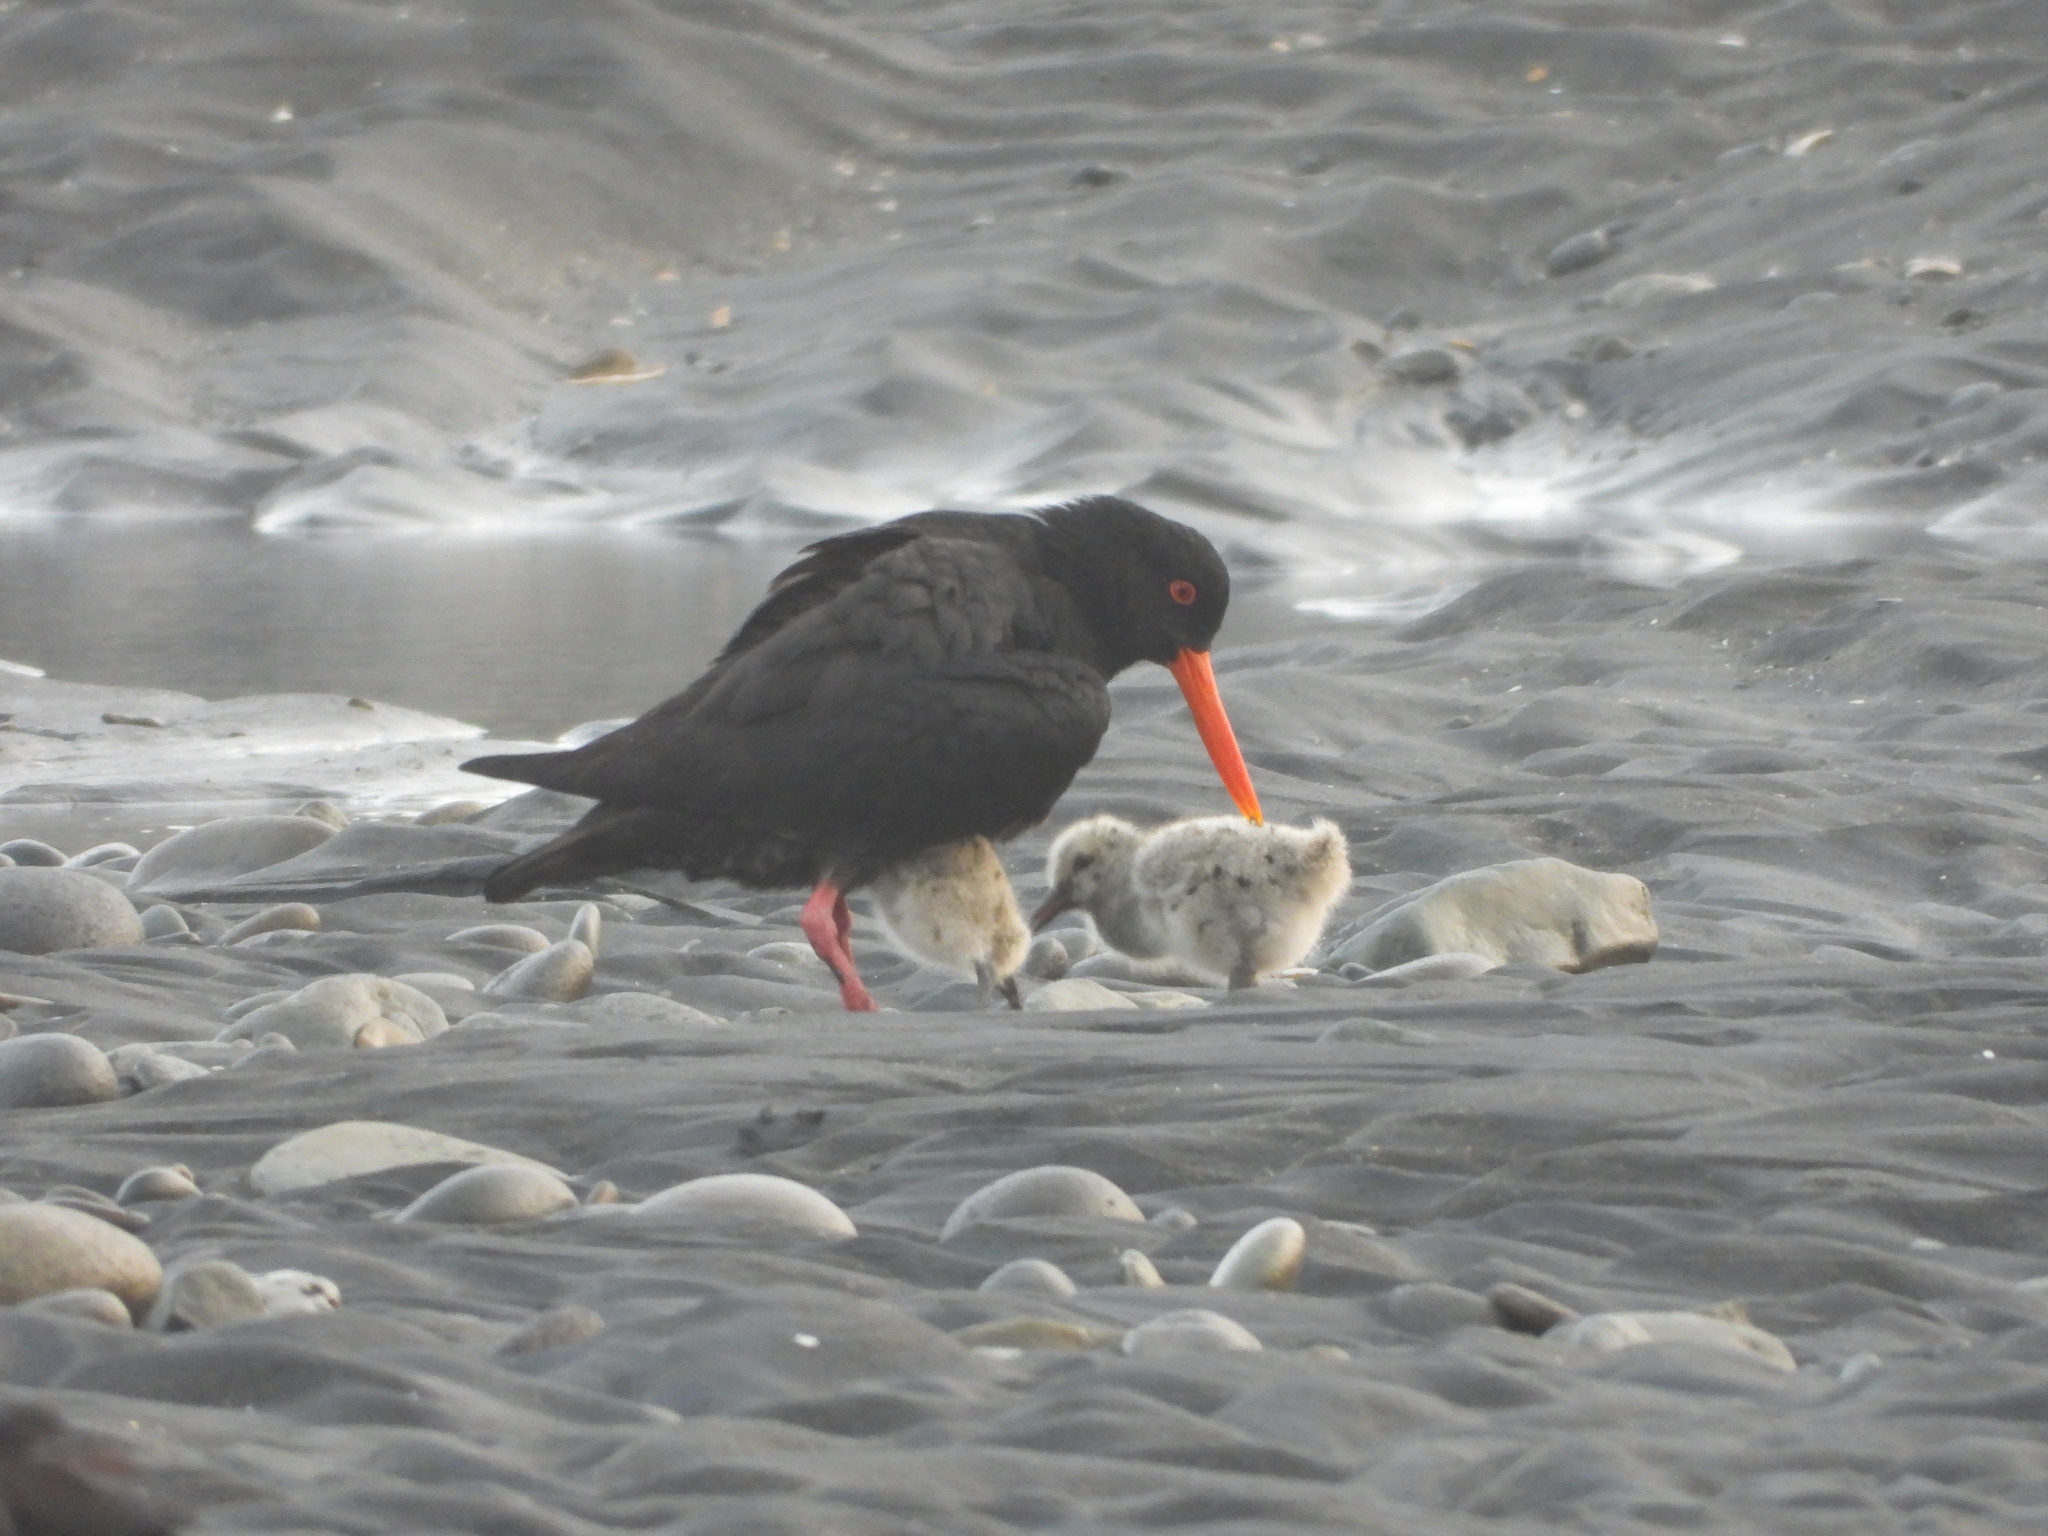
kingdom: Animalia
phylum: Chordata
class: Aves
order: Charadriiformes
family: Haematopodidae
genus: Haematopus
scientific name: Haematopus unicolor
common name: Variable oystercatcher
